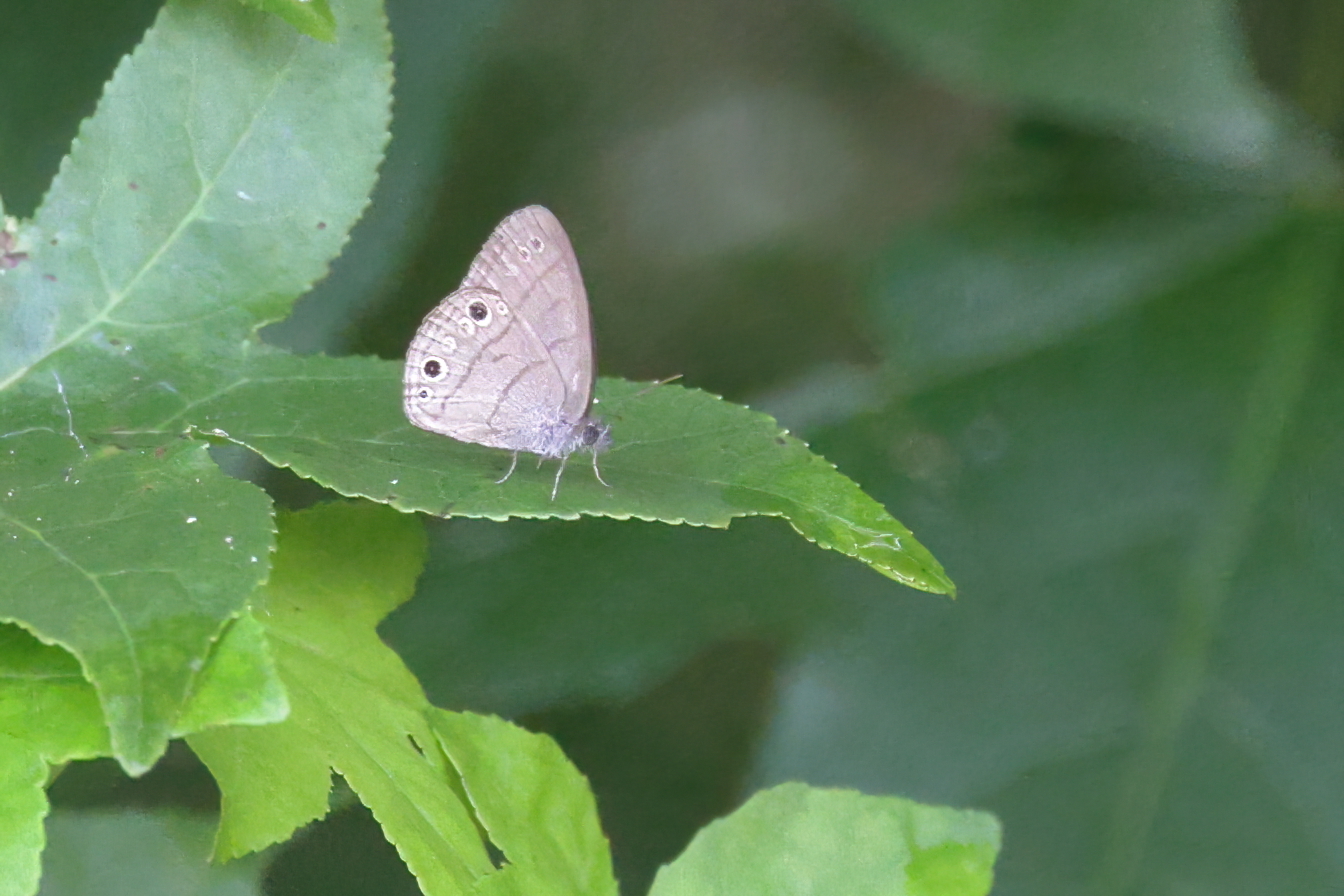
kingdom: Animalia
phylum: Arthropoda
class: Insecta
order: Lepidoptera
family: Nymphalidae
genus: Hermeuptychia
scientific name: Hermeuptychia hermes
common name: Hermes satyr
